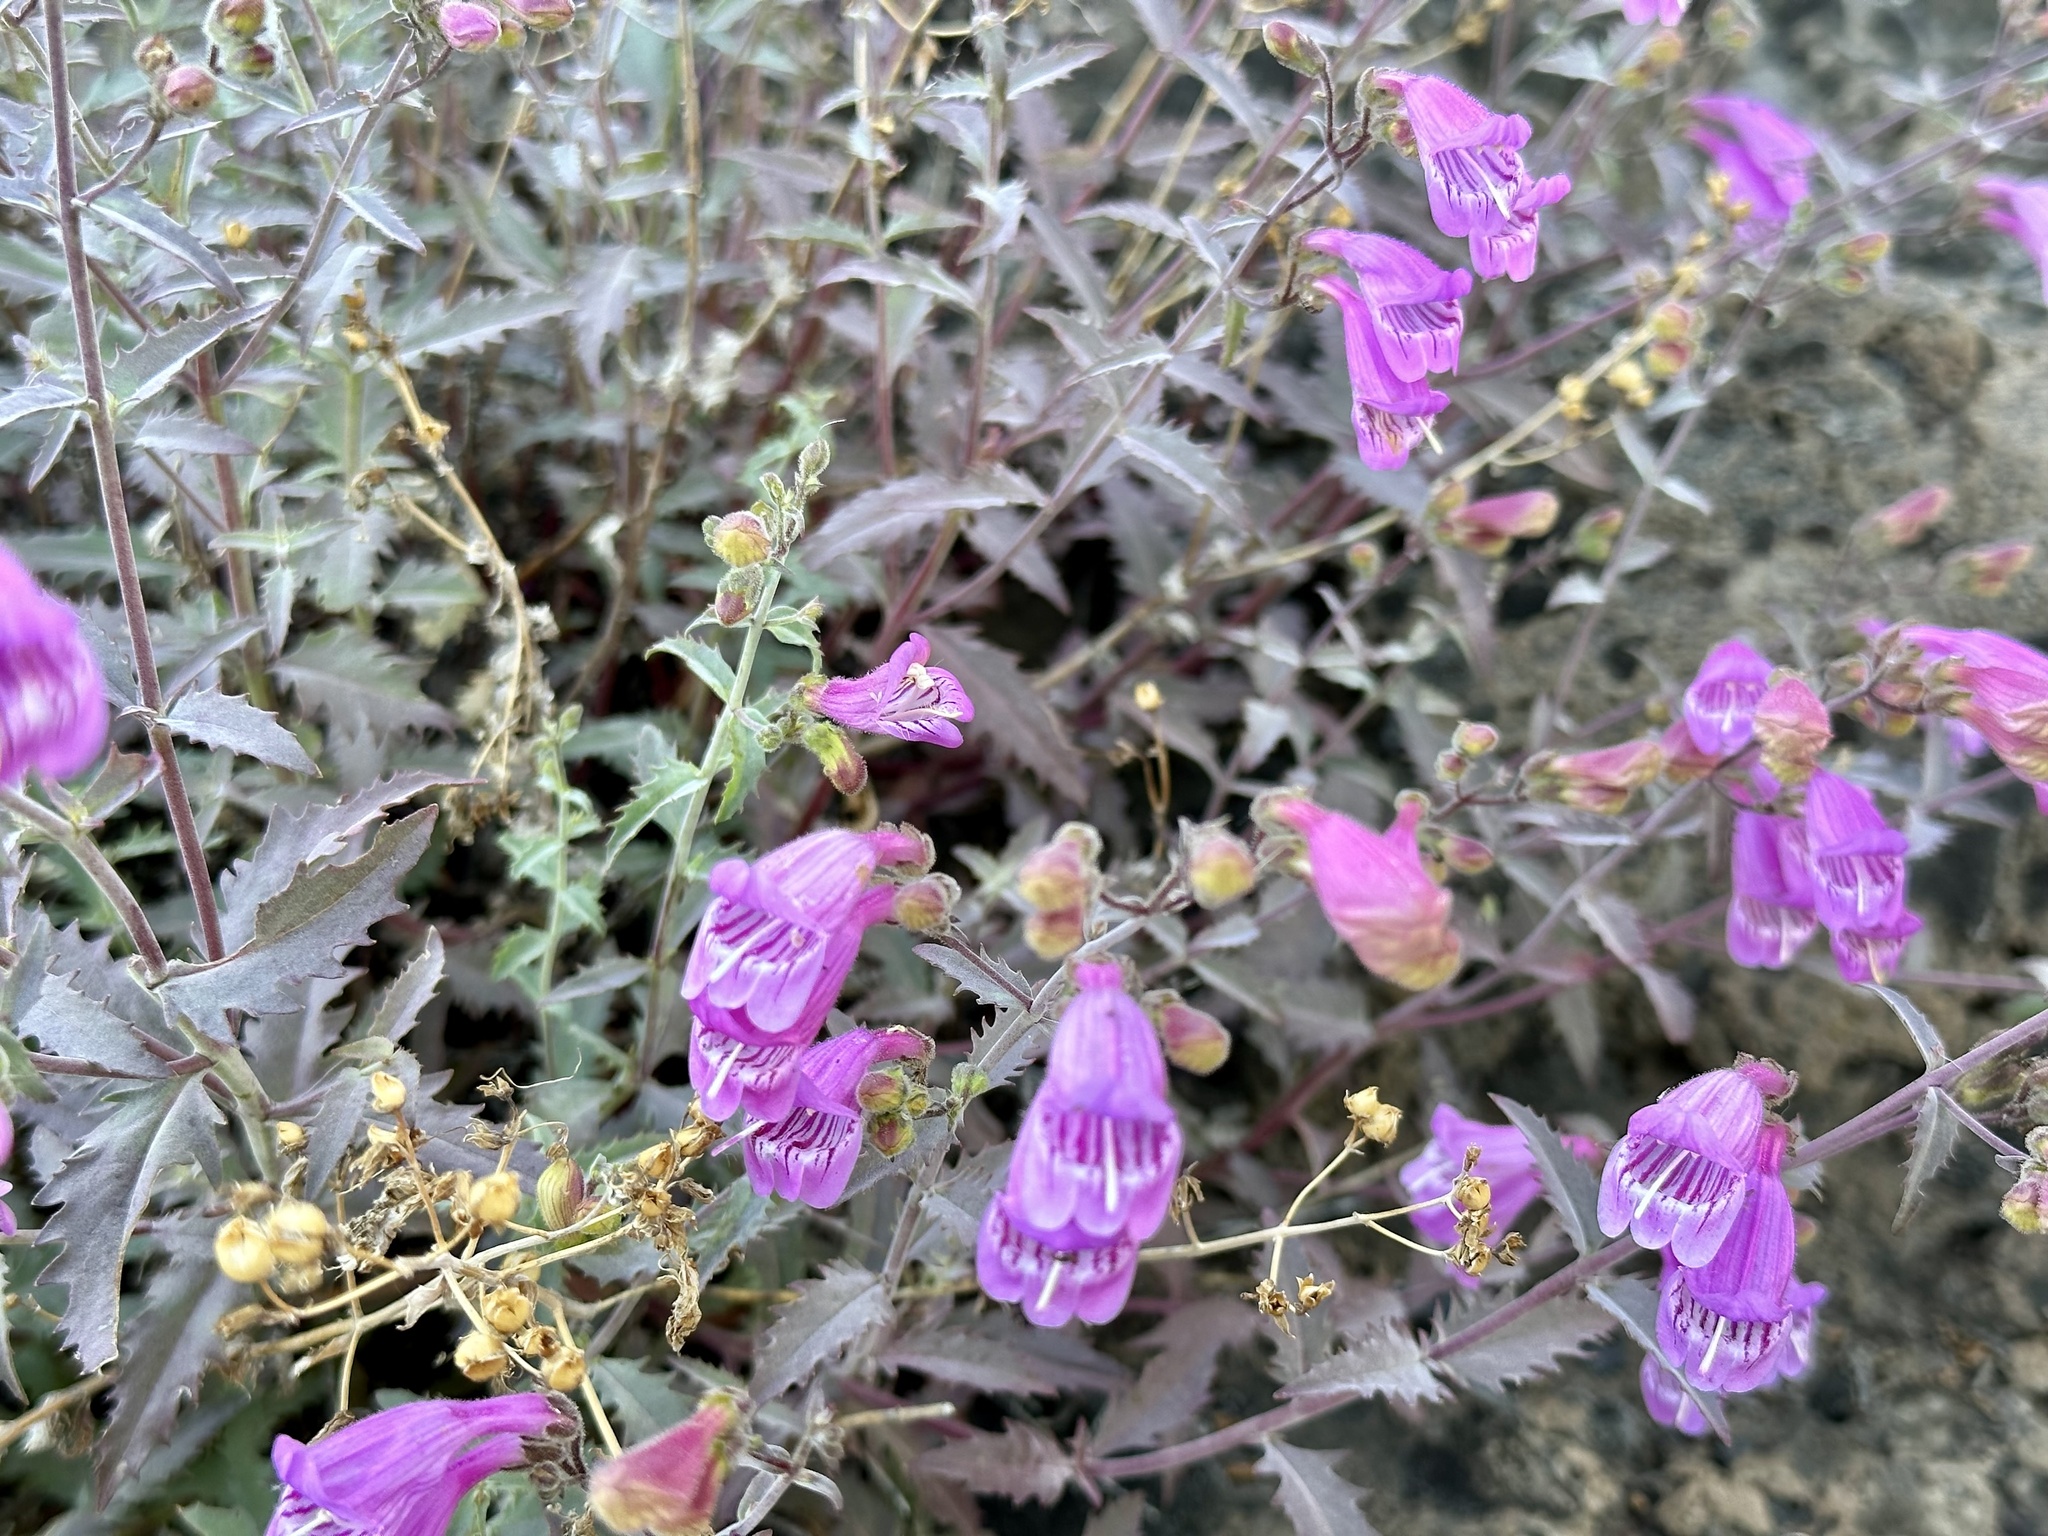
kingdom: Plantae
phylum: Tracheophyta
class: Magnoliopsida
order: Lamiales
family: Plantaginaceae
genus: Penstemon
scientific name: Penstemon richardsonii
